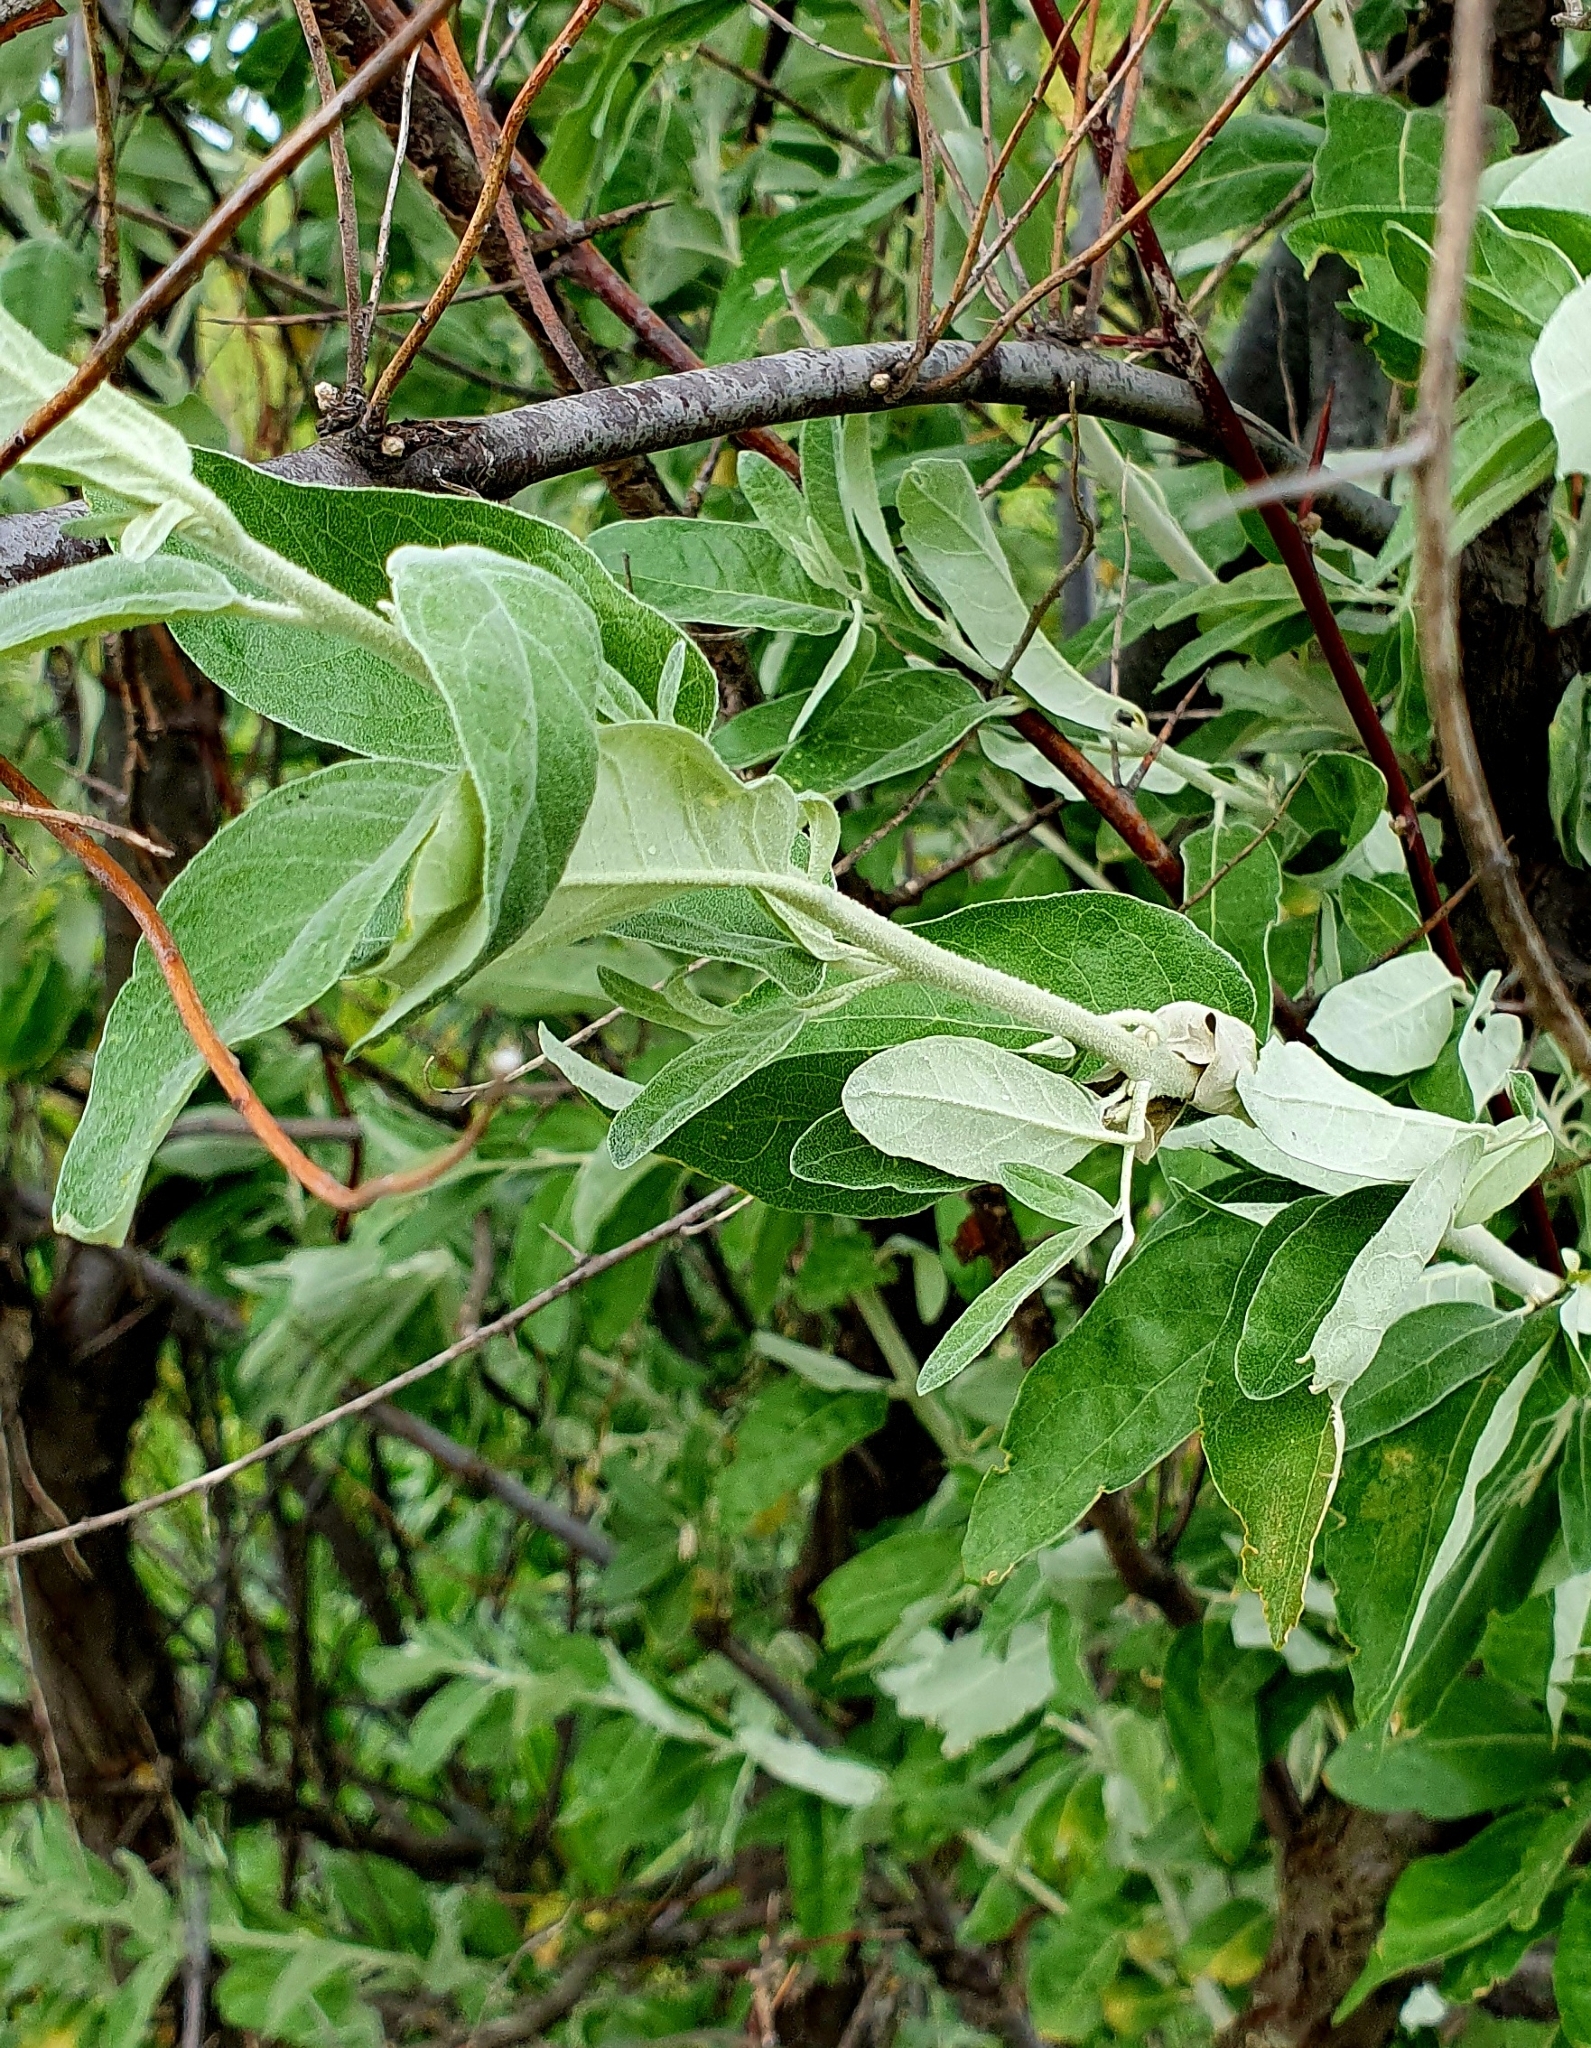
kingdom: Plantae
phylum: Tracheophyta
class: Magnoliopsida
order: Rosales
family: Elaeagnaceae
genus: Elaeagnus
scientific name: Elaeagnus angustifolia
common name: Russian olive
